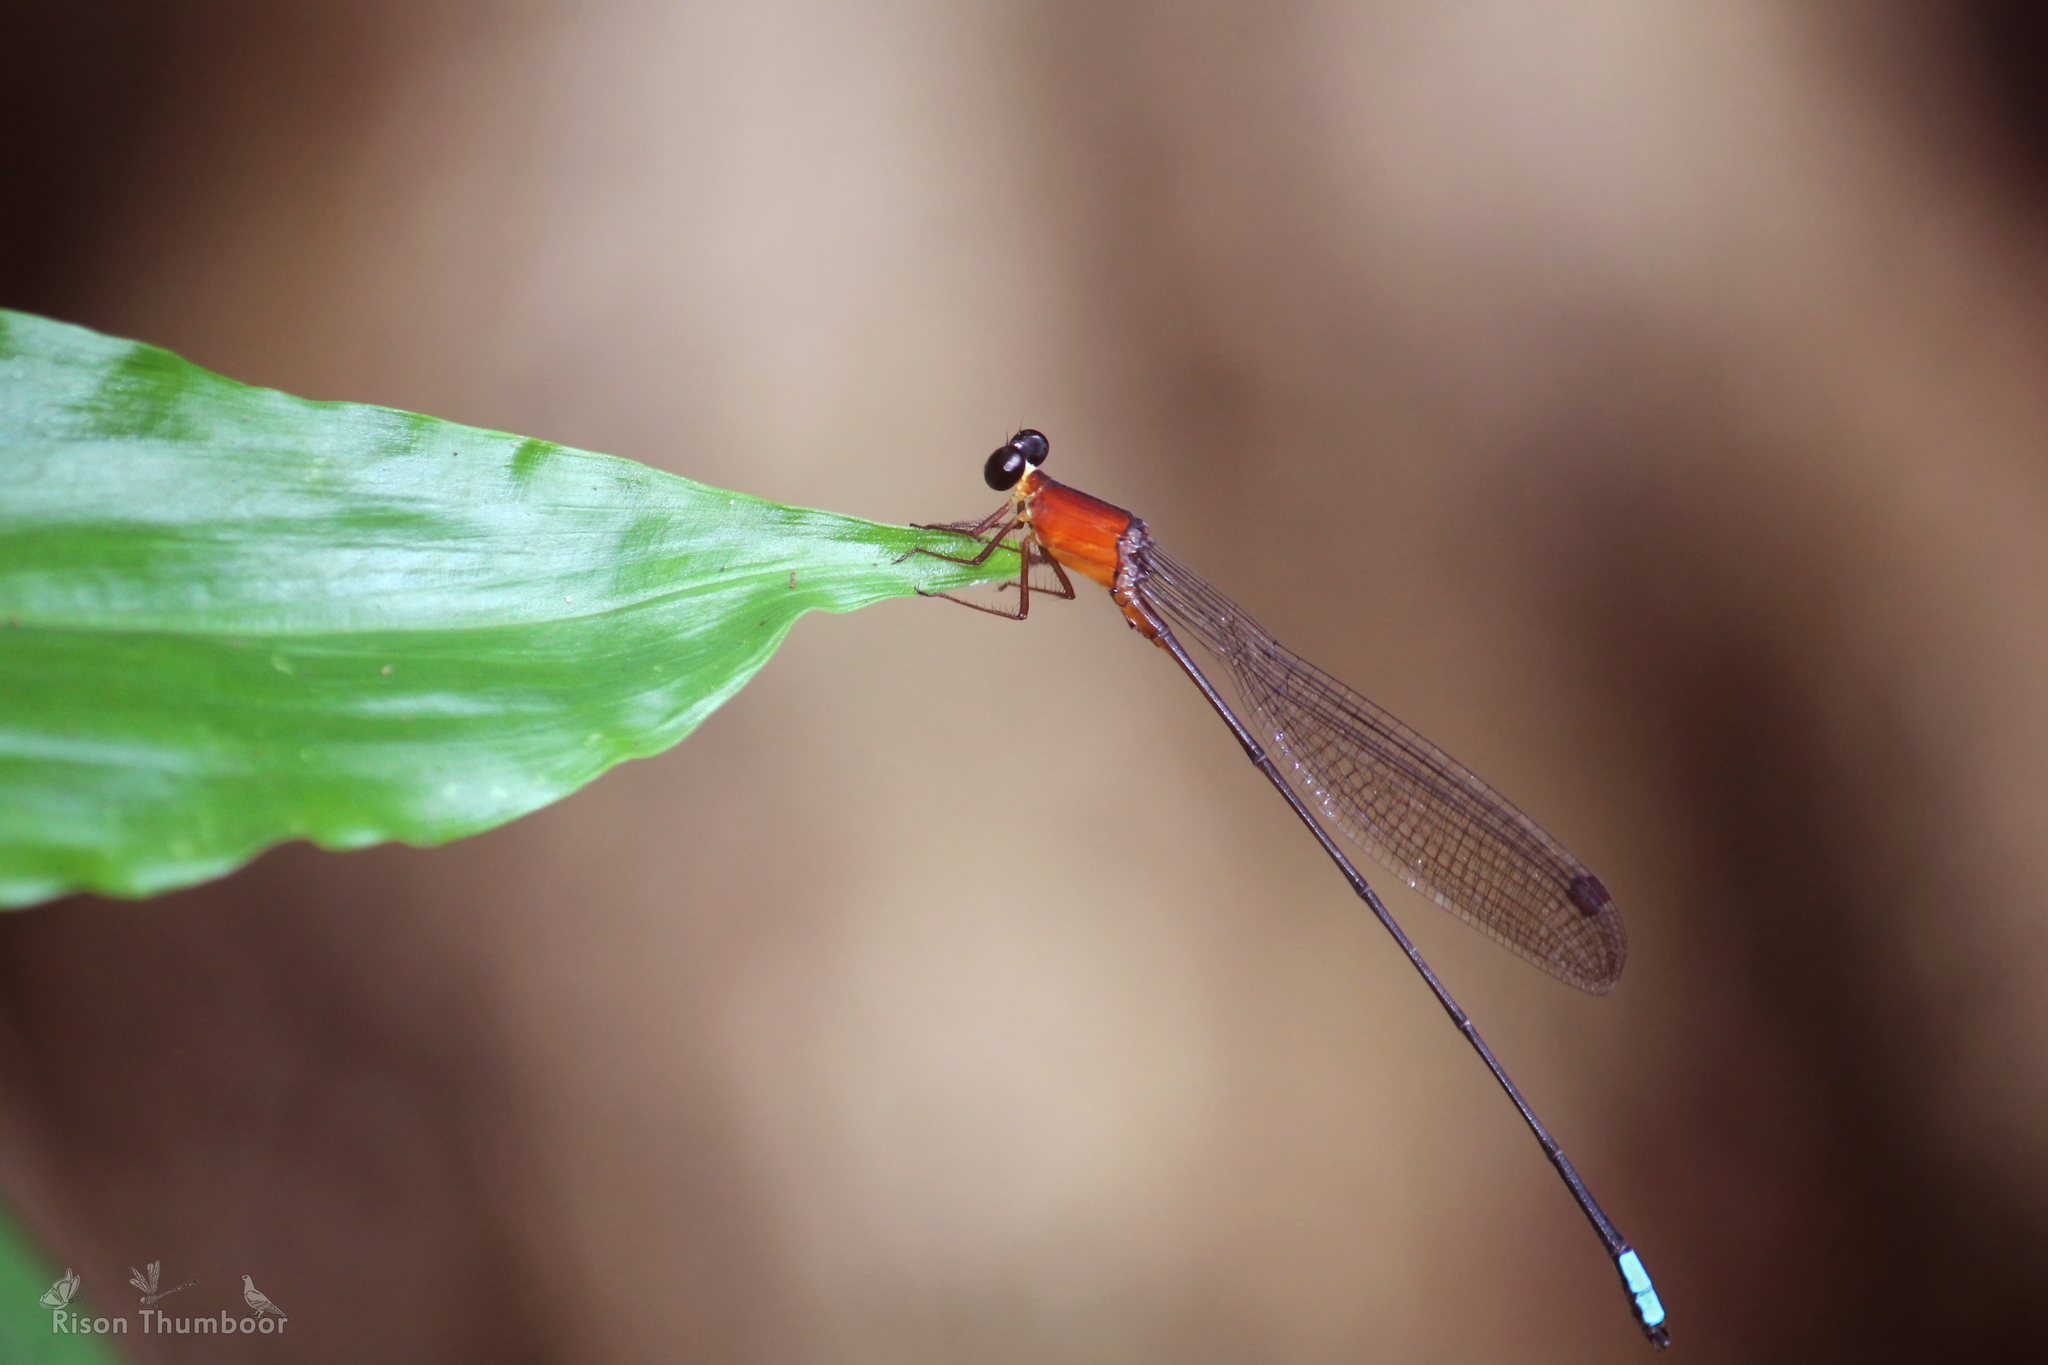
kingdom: Animalia
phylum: Arthropoda
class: Insecta
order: Odonata
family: Platystictidae
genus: Indosticta
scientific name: Indosticta deccanensis
